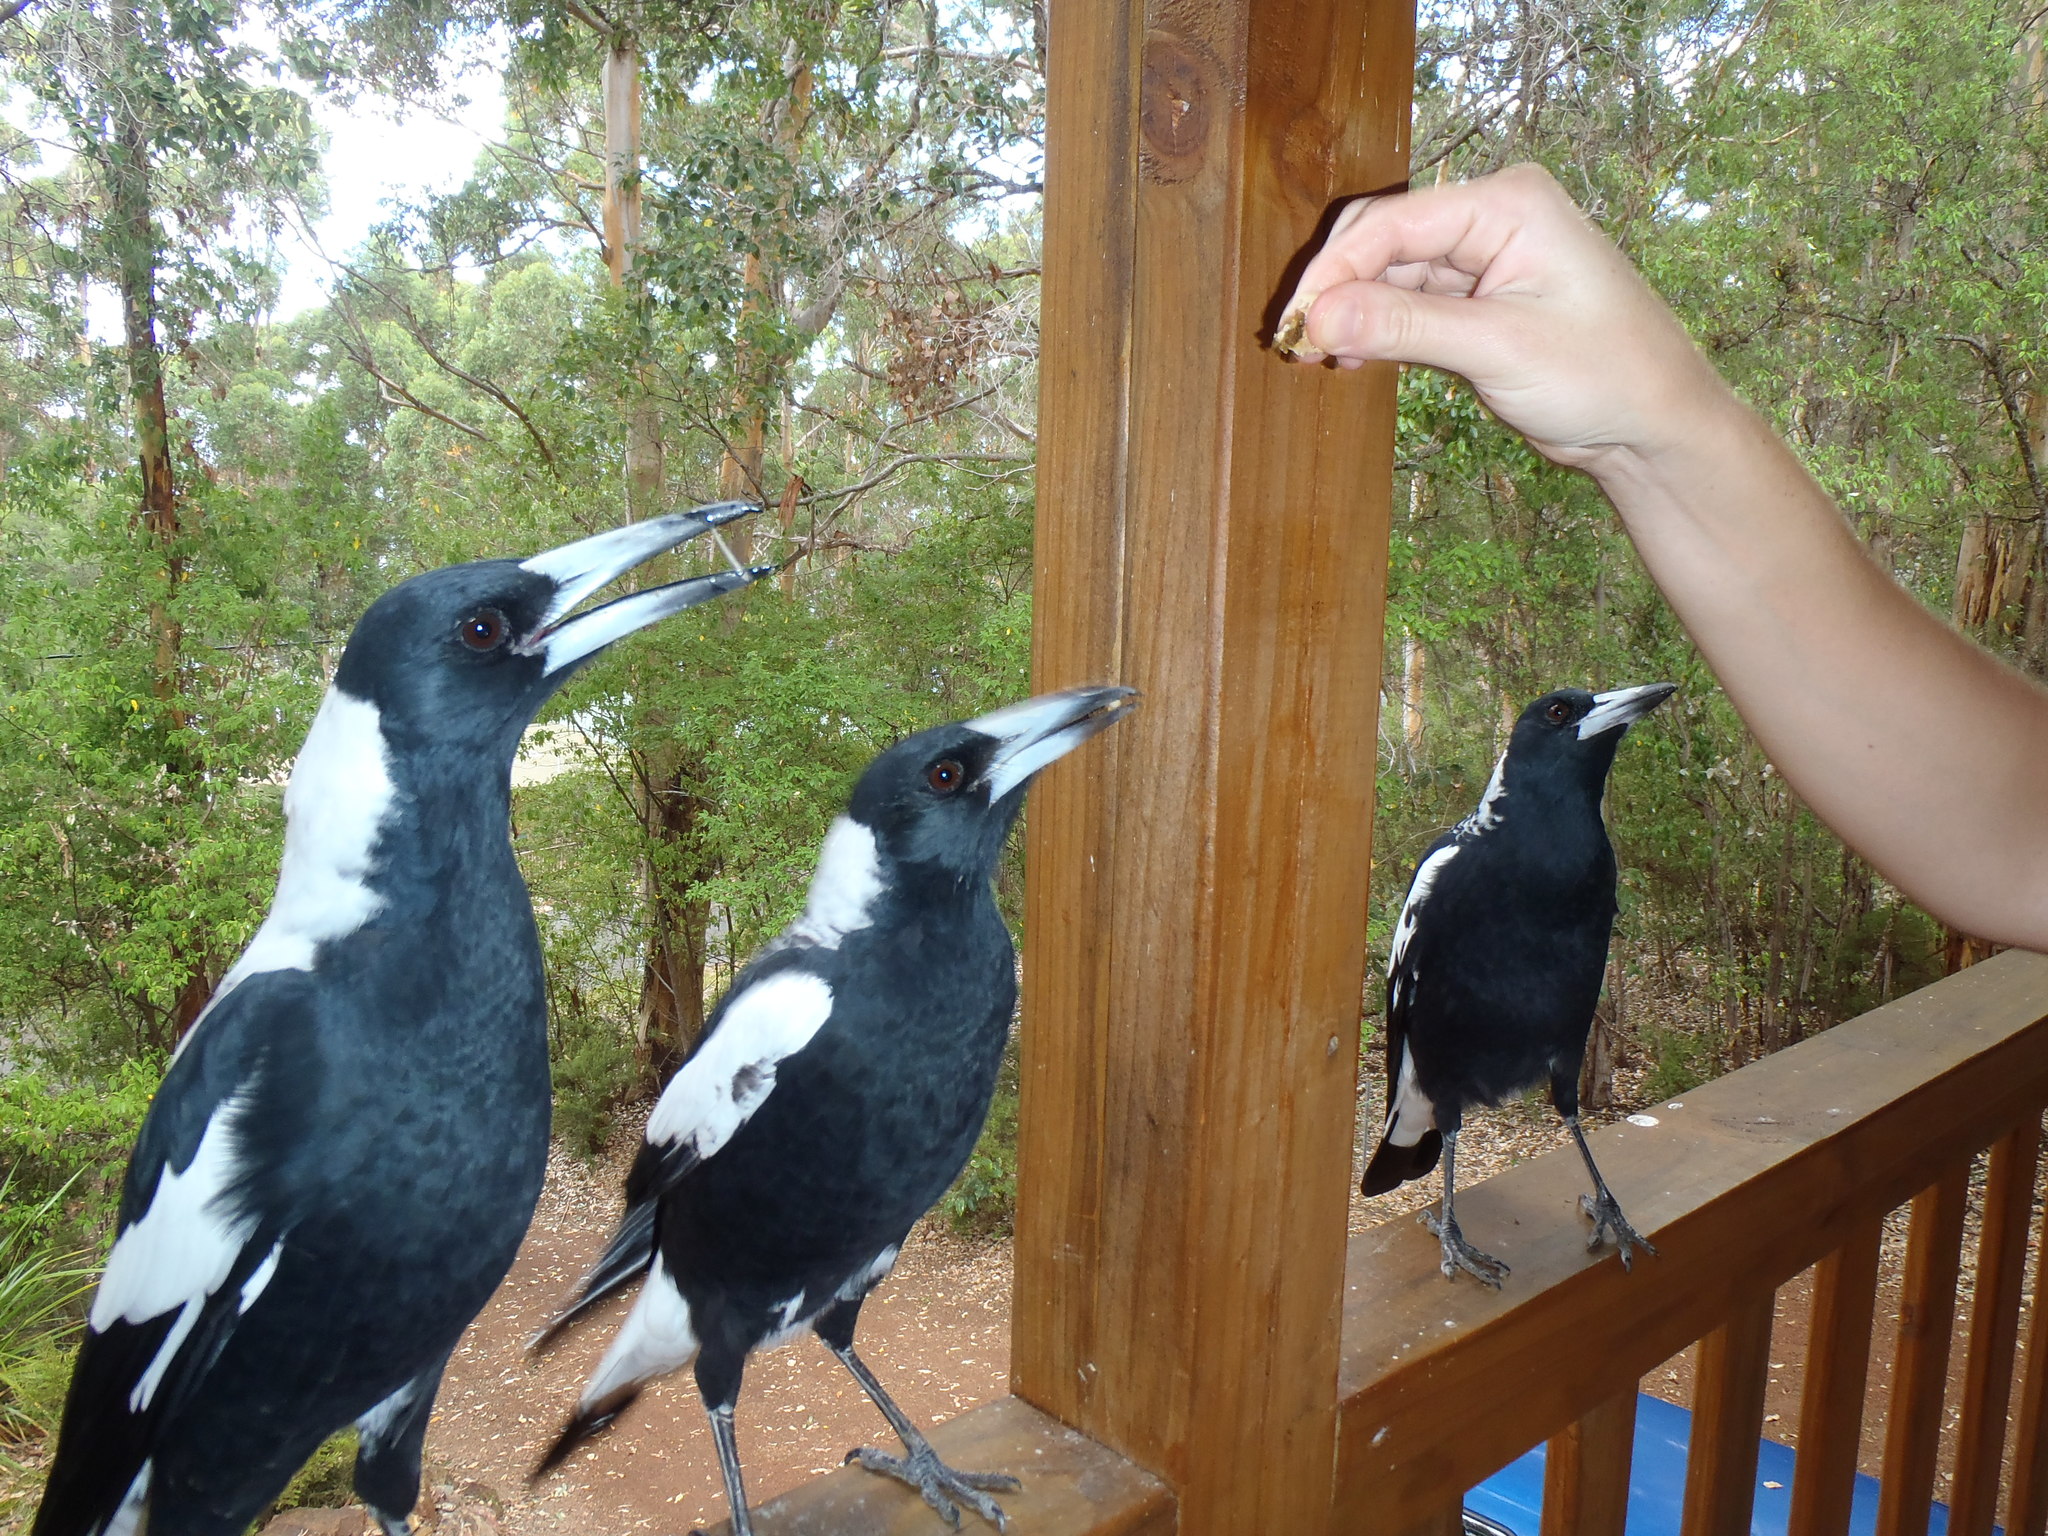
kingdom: Animalia
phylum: Chordata
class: Aves
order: Passeriformes
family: Cracticidae
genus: Gymnorhina
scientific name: Gymnorhina tibicen
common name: Australian magpie
